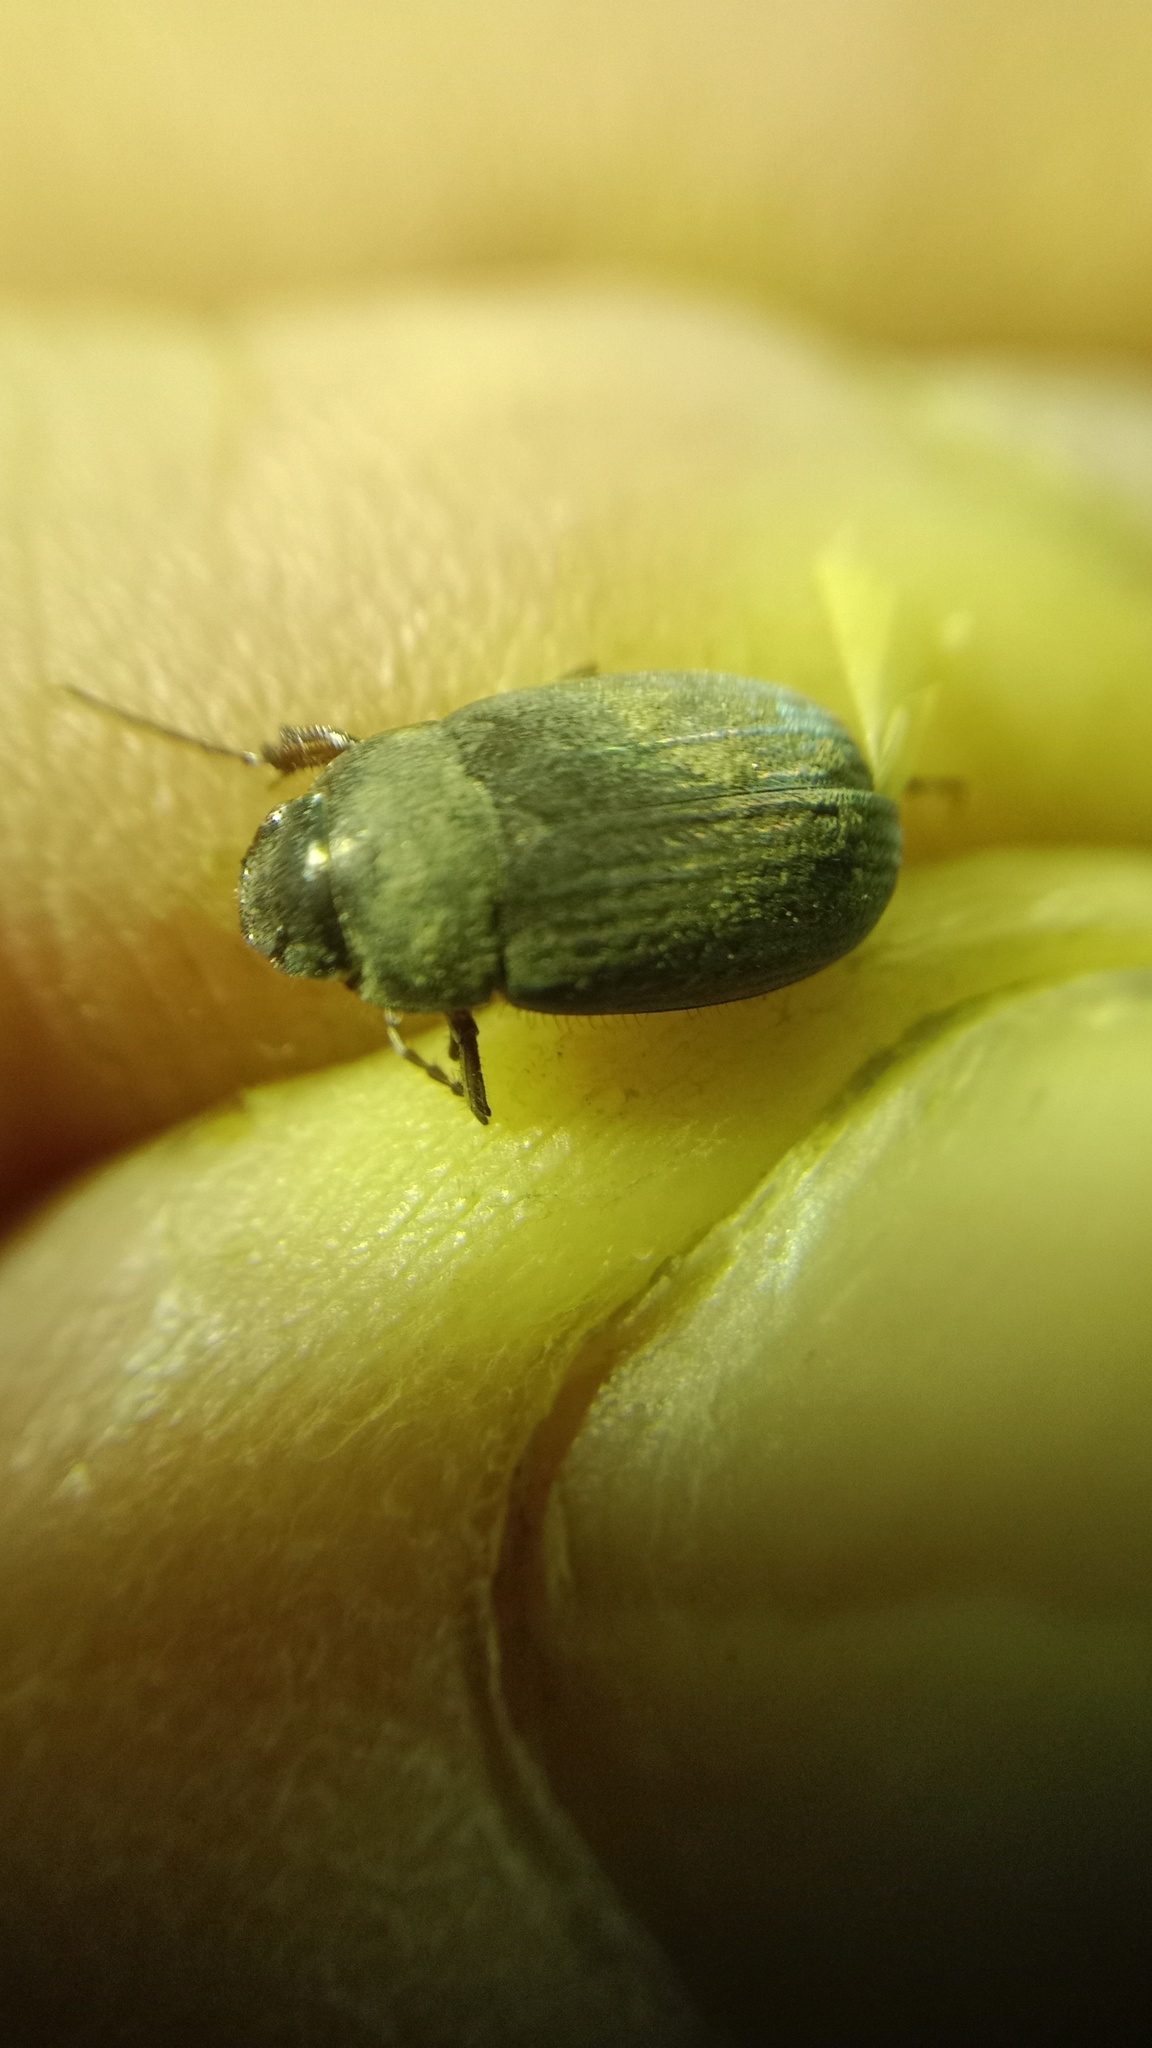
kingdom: Animalia
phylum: Arthropoda
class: Insecta
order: Coleoptera
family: Scarabaeidae
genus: Maladera
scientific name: Maladera holosericea
